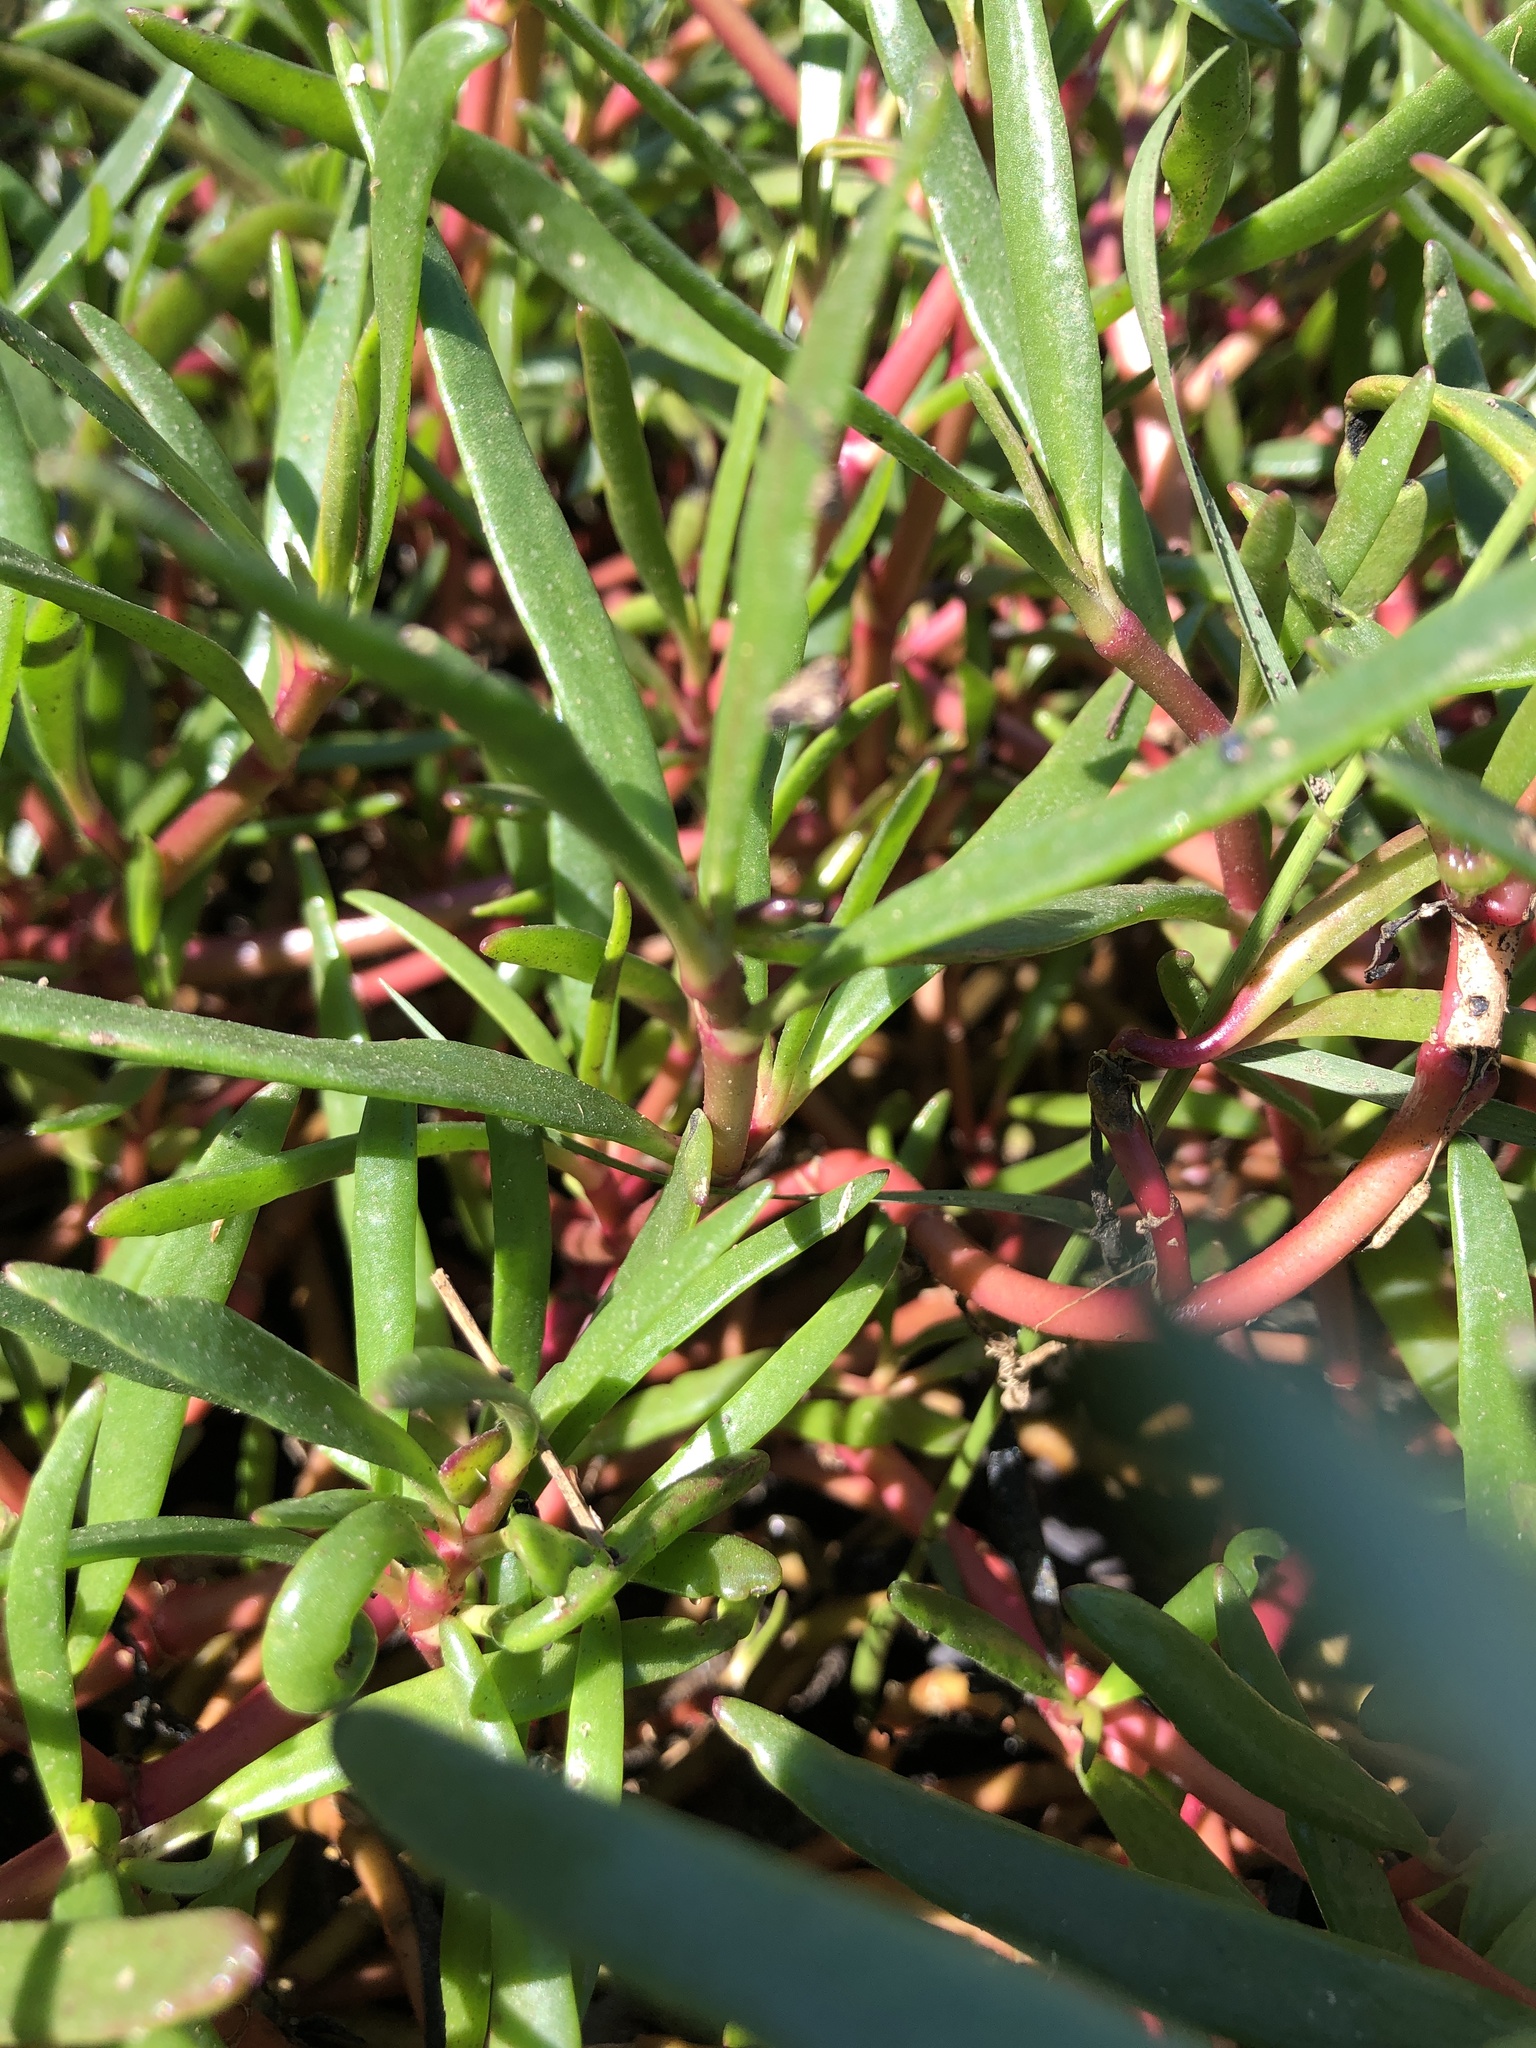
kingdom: Plantae
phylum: Tracheophyta
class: Magnoliopsida
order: Caryophyllales
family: Aizoaceae
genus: Sesuvium
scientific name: Sesuvium portulacastrum
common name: Sea-purslane
